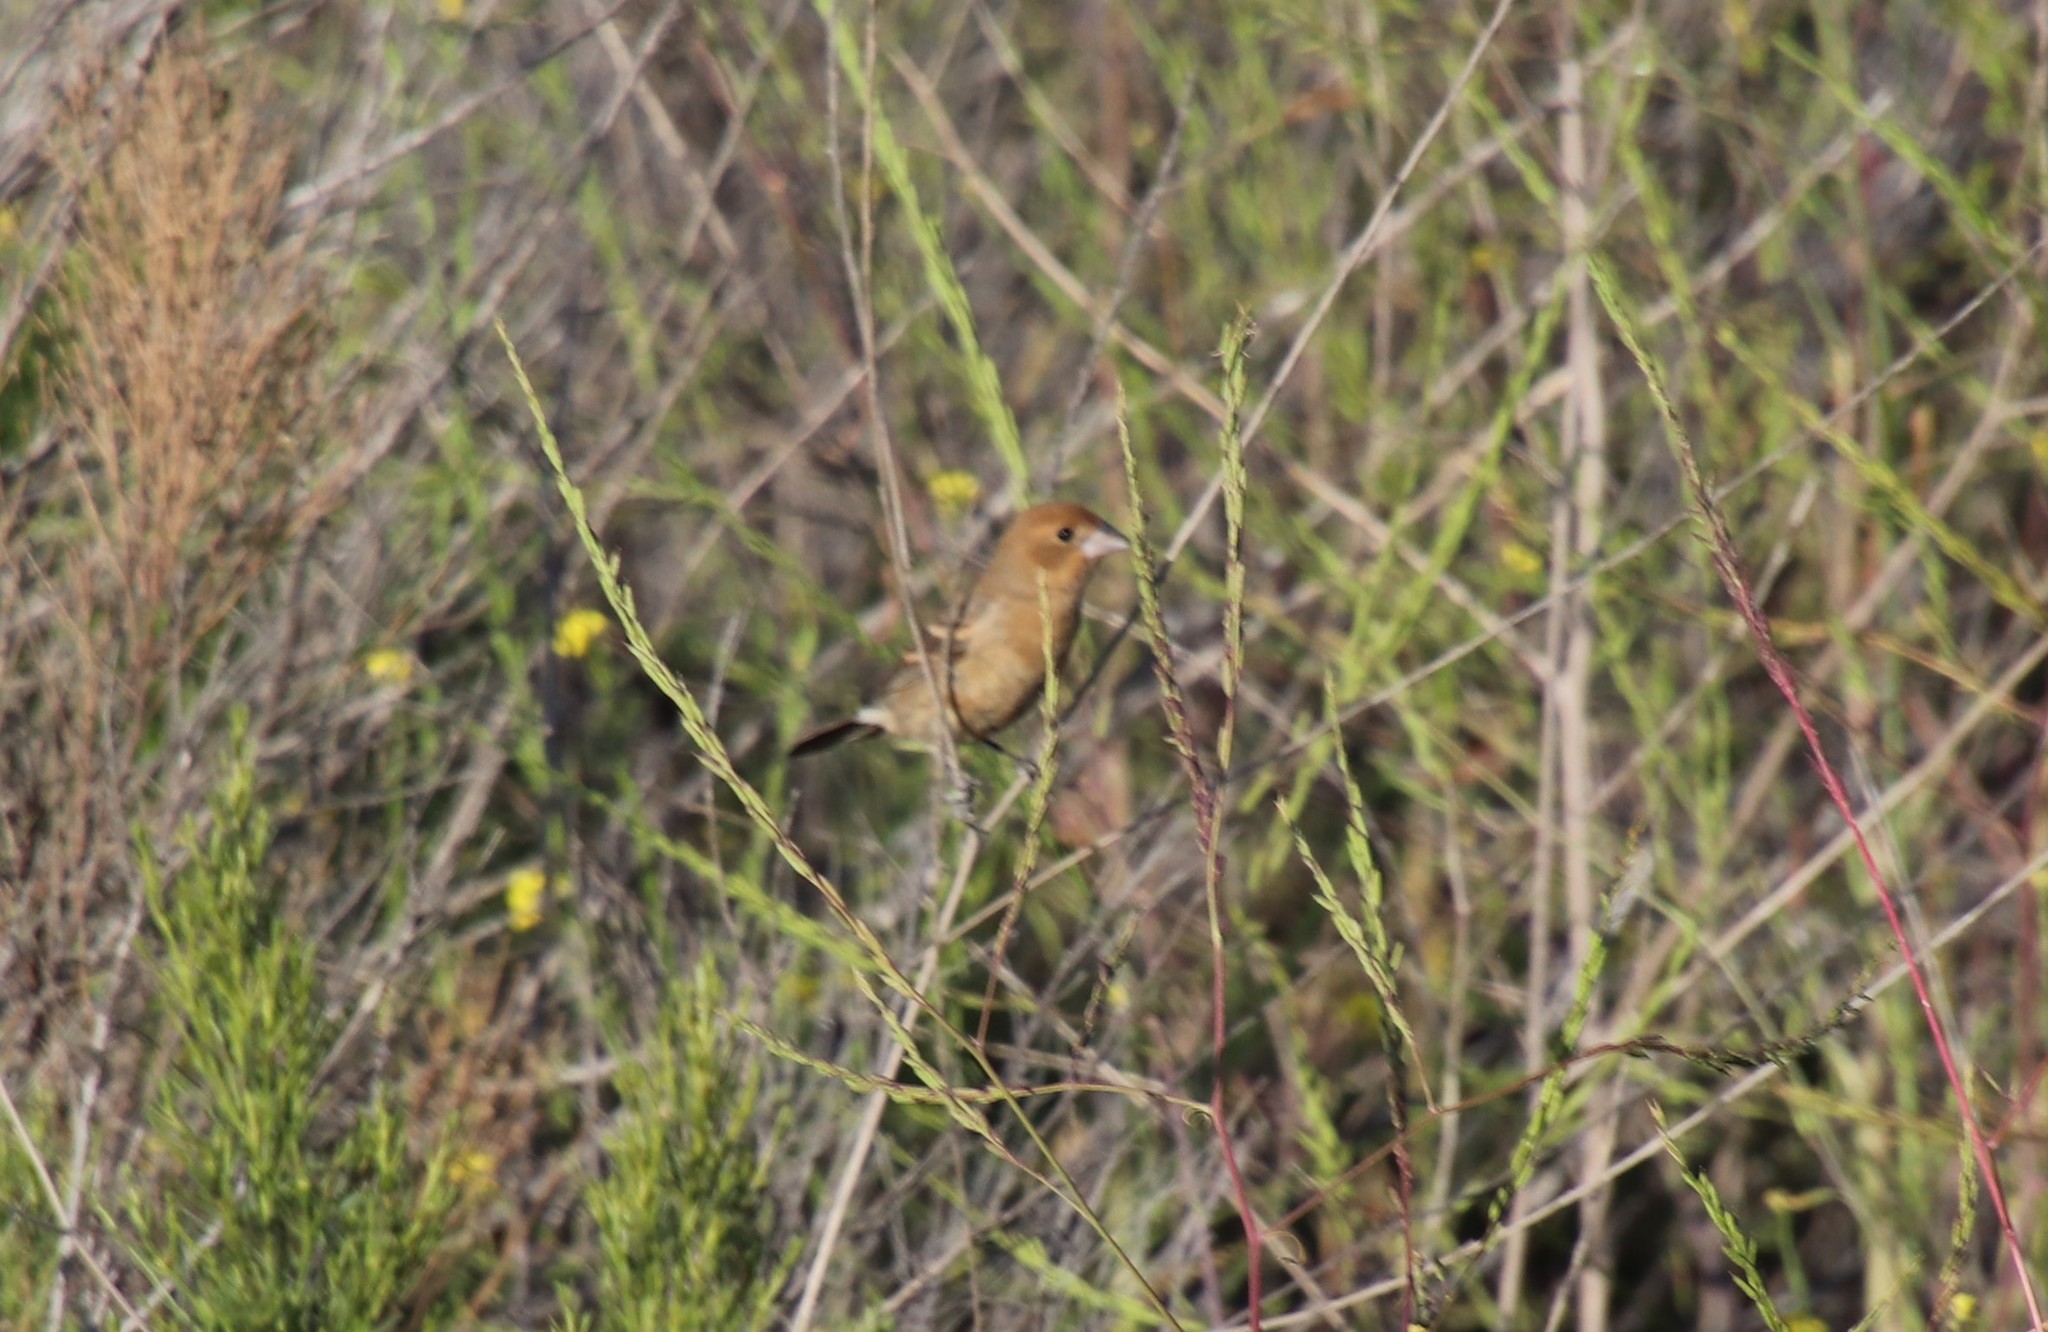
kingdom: Animalia
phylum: Chordata
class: Aves
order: Passeriformes
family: Cardinalidae
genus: Passerina
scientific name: Passerina caerulea
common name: Blue grosbeak
